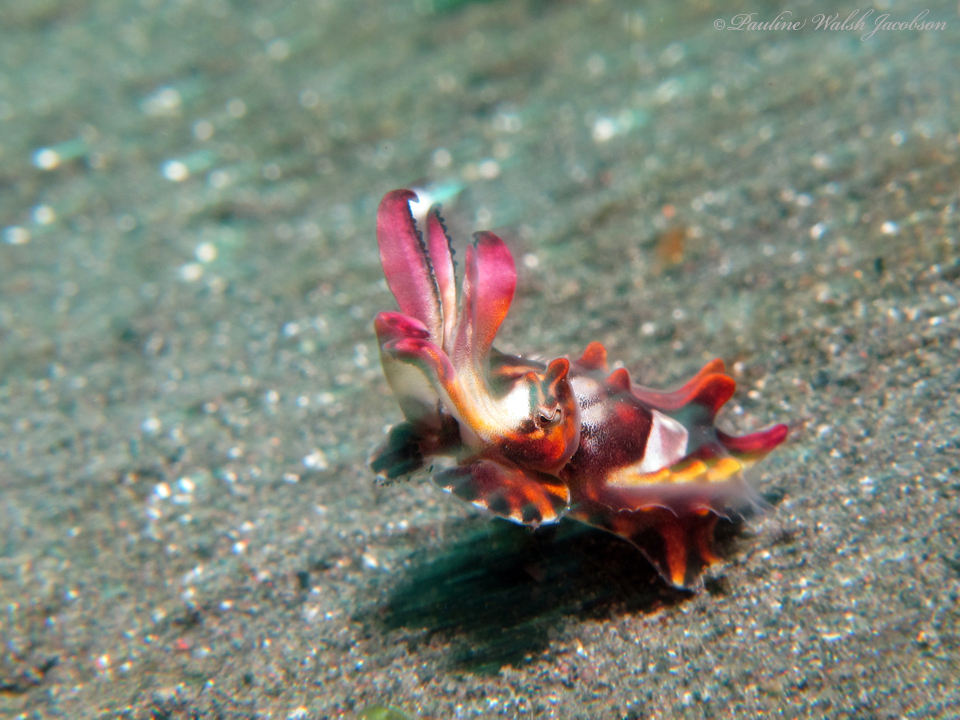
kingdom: Animalia
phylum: Mollusca
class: Cephalopoda
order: Sepiida
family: Sepiidae
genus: Ascarosepion
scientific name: Ascarosepion pfefferi
